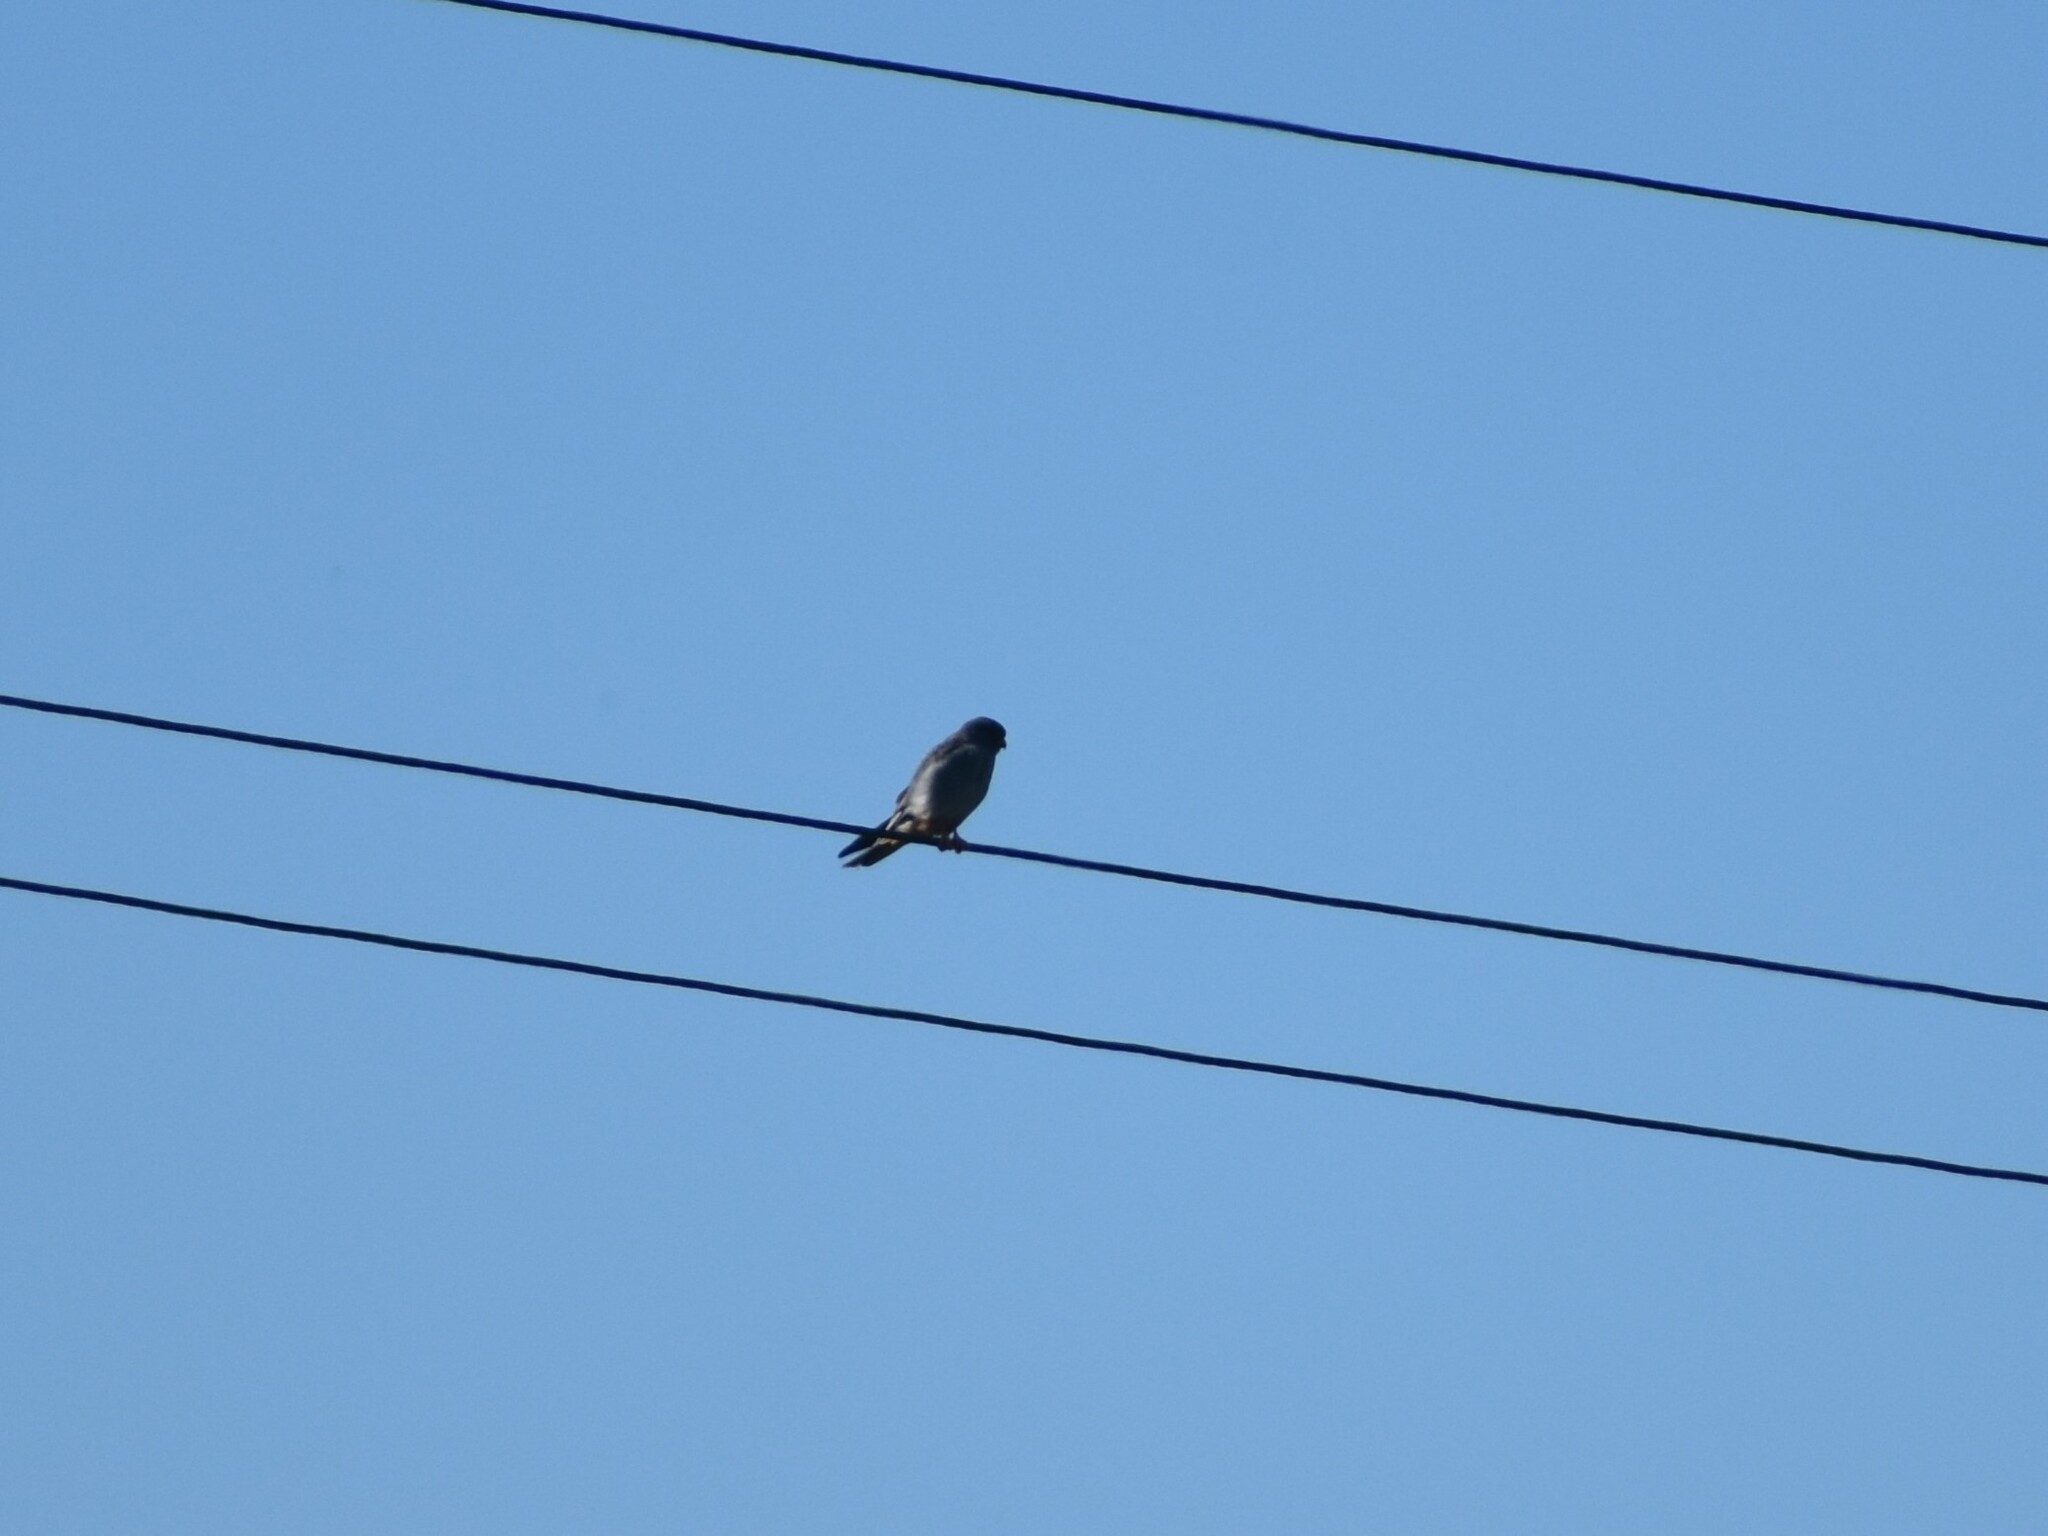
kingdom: Animalia
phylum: Chordata
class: Aves
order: Falconiformes
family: Falconidae
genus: Falco
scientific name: Falco amurensis
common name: Amur falcon
